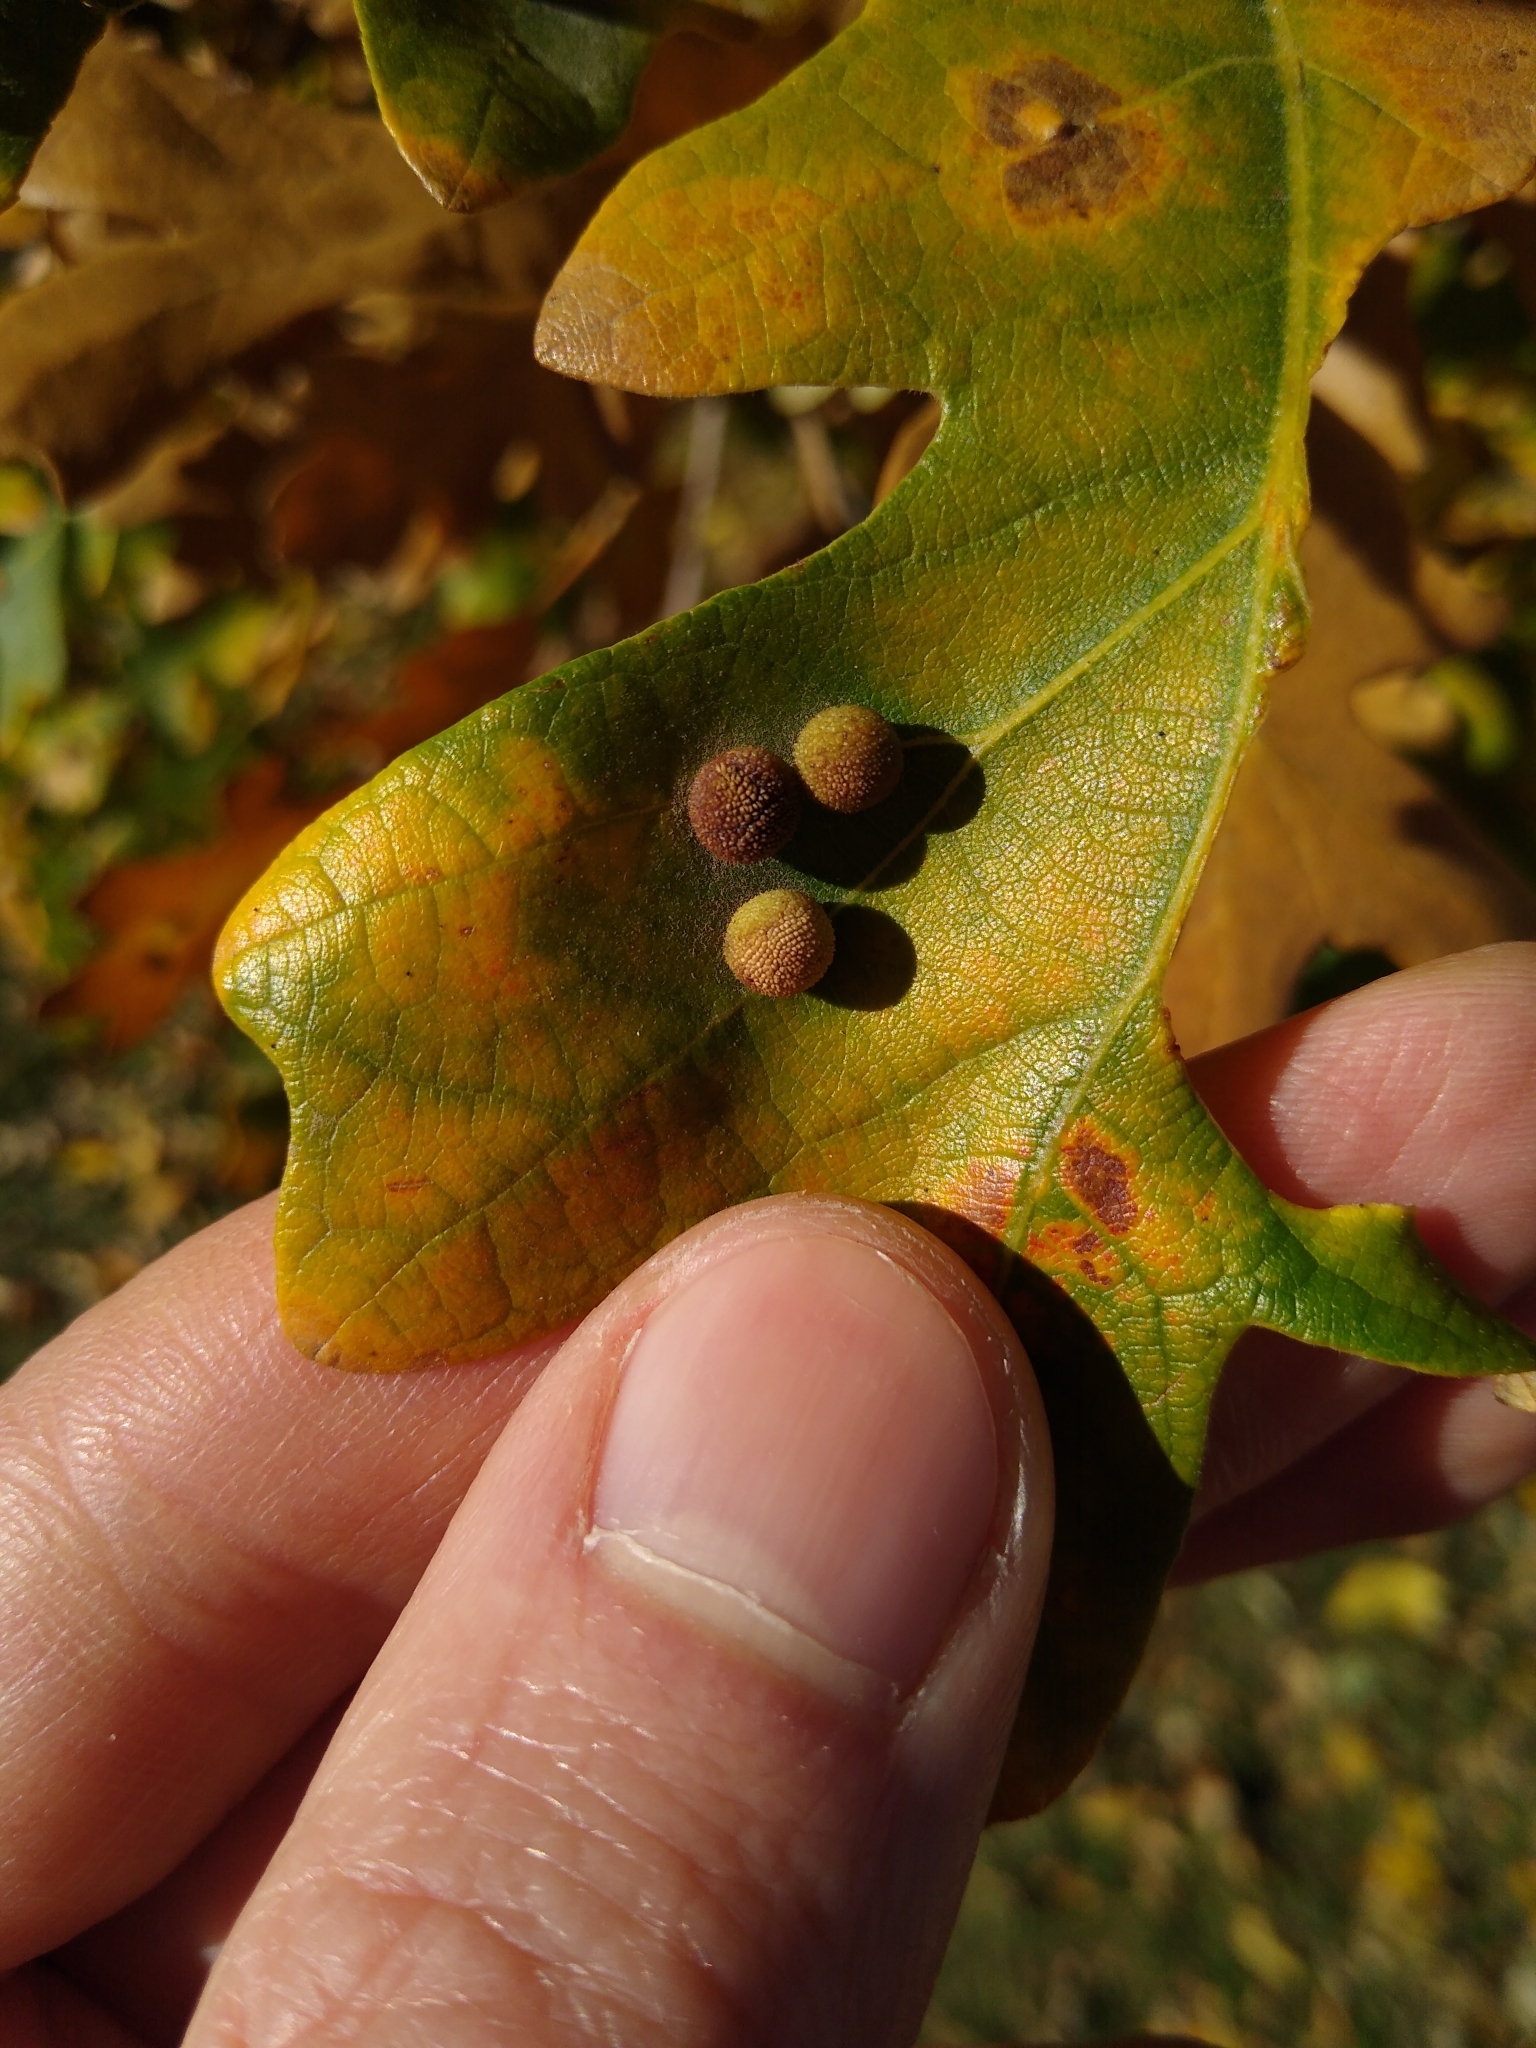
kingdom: Animalia
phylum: Arthropoda
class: Insecta
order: Hymenoptera
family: Cynipidae
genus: Acraspis
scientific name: Acraspis quercushirta
